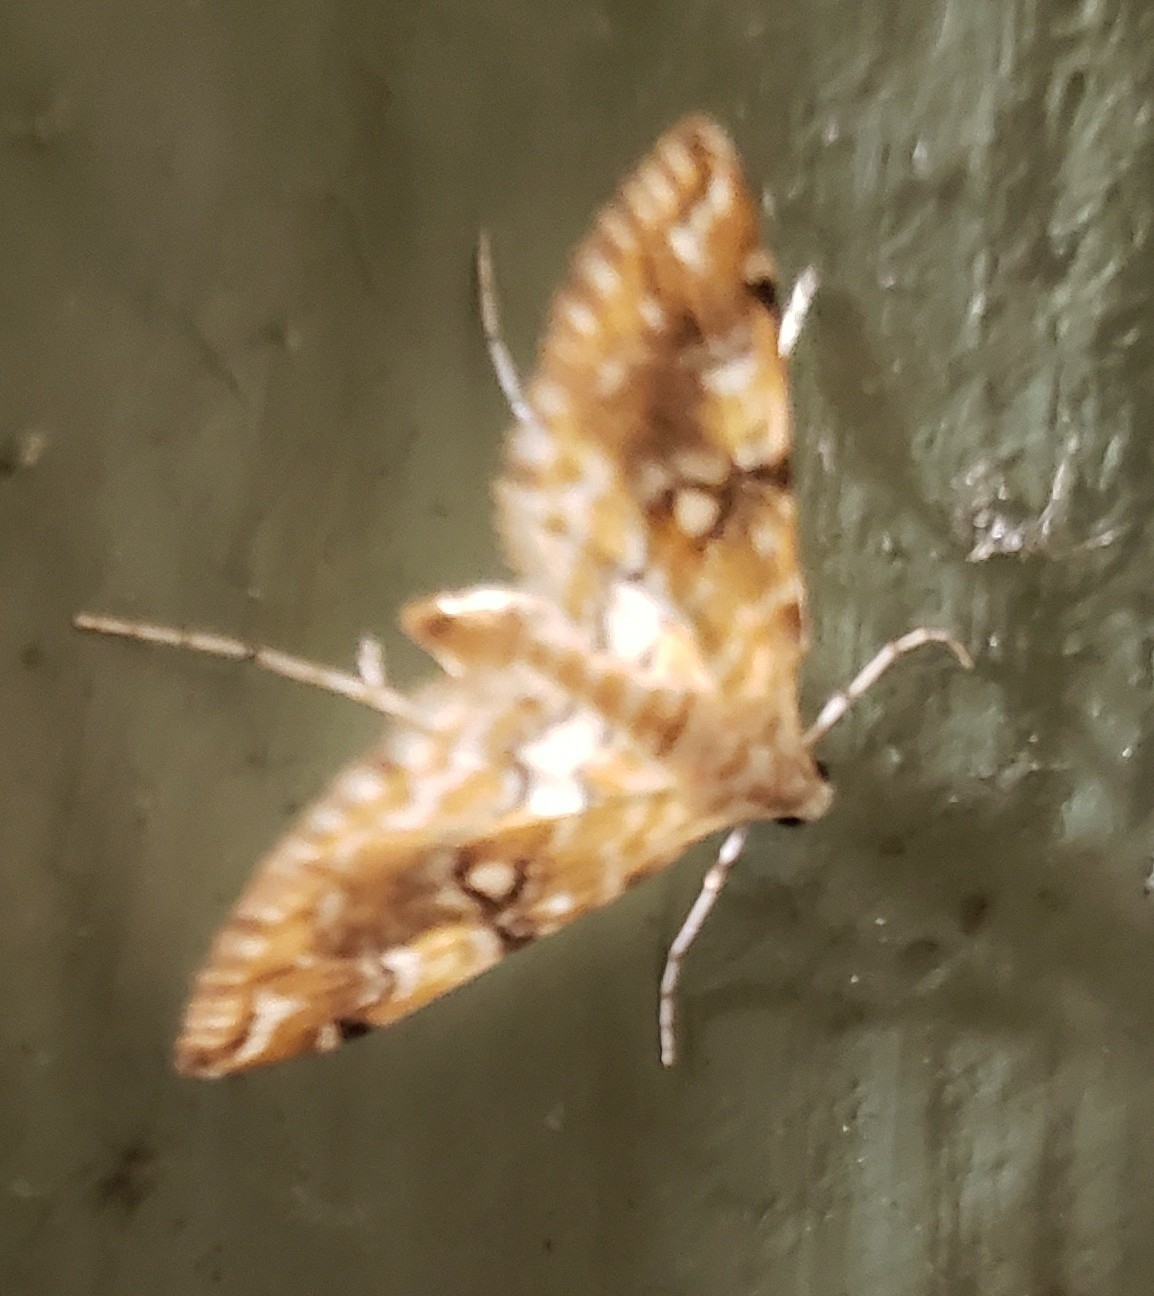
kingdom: Animalia
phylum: Arthropoda
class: Insecta
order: Lepidoptera
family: Crambidae
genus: Elophila
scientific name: Elophila icciusalis
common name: Pondside pyralid moth
